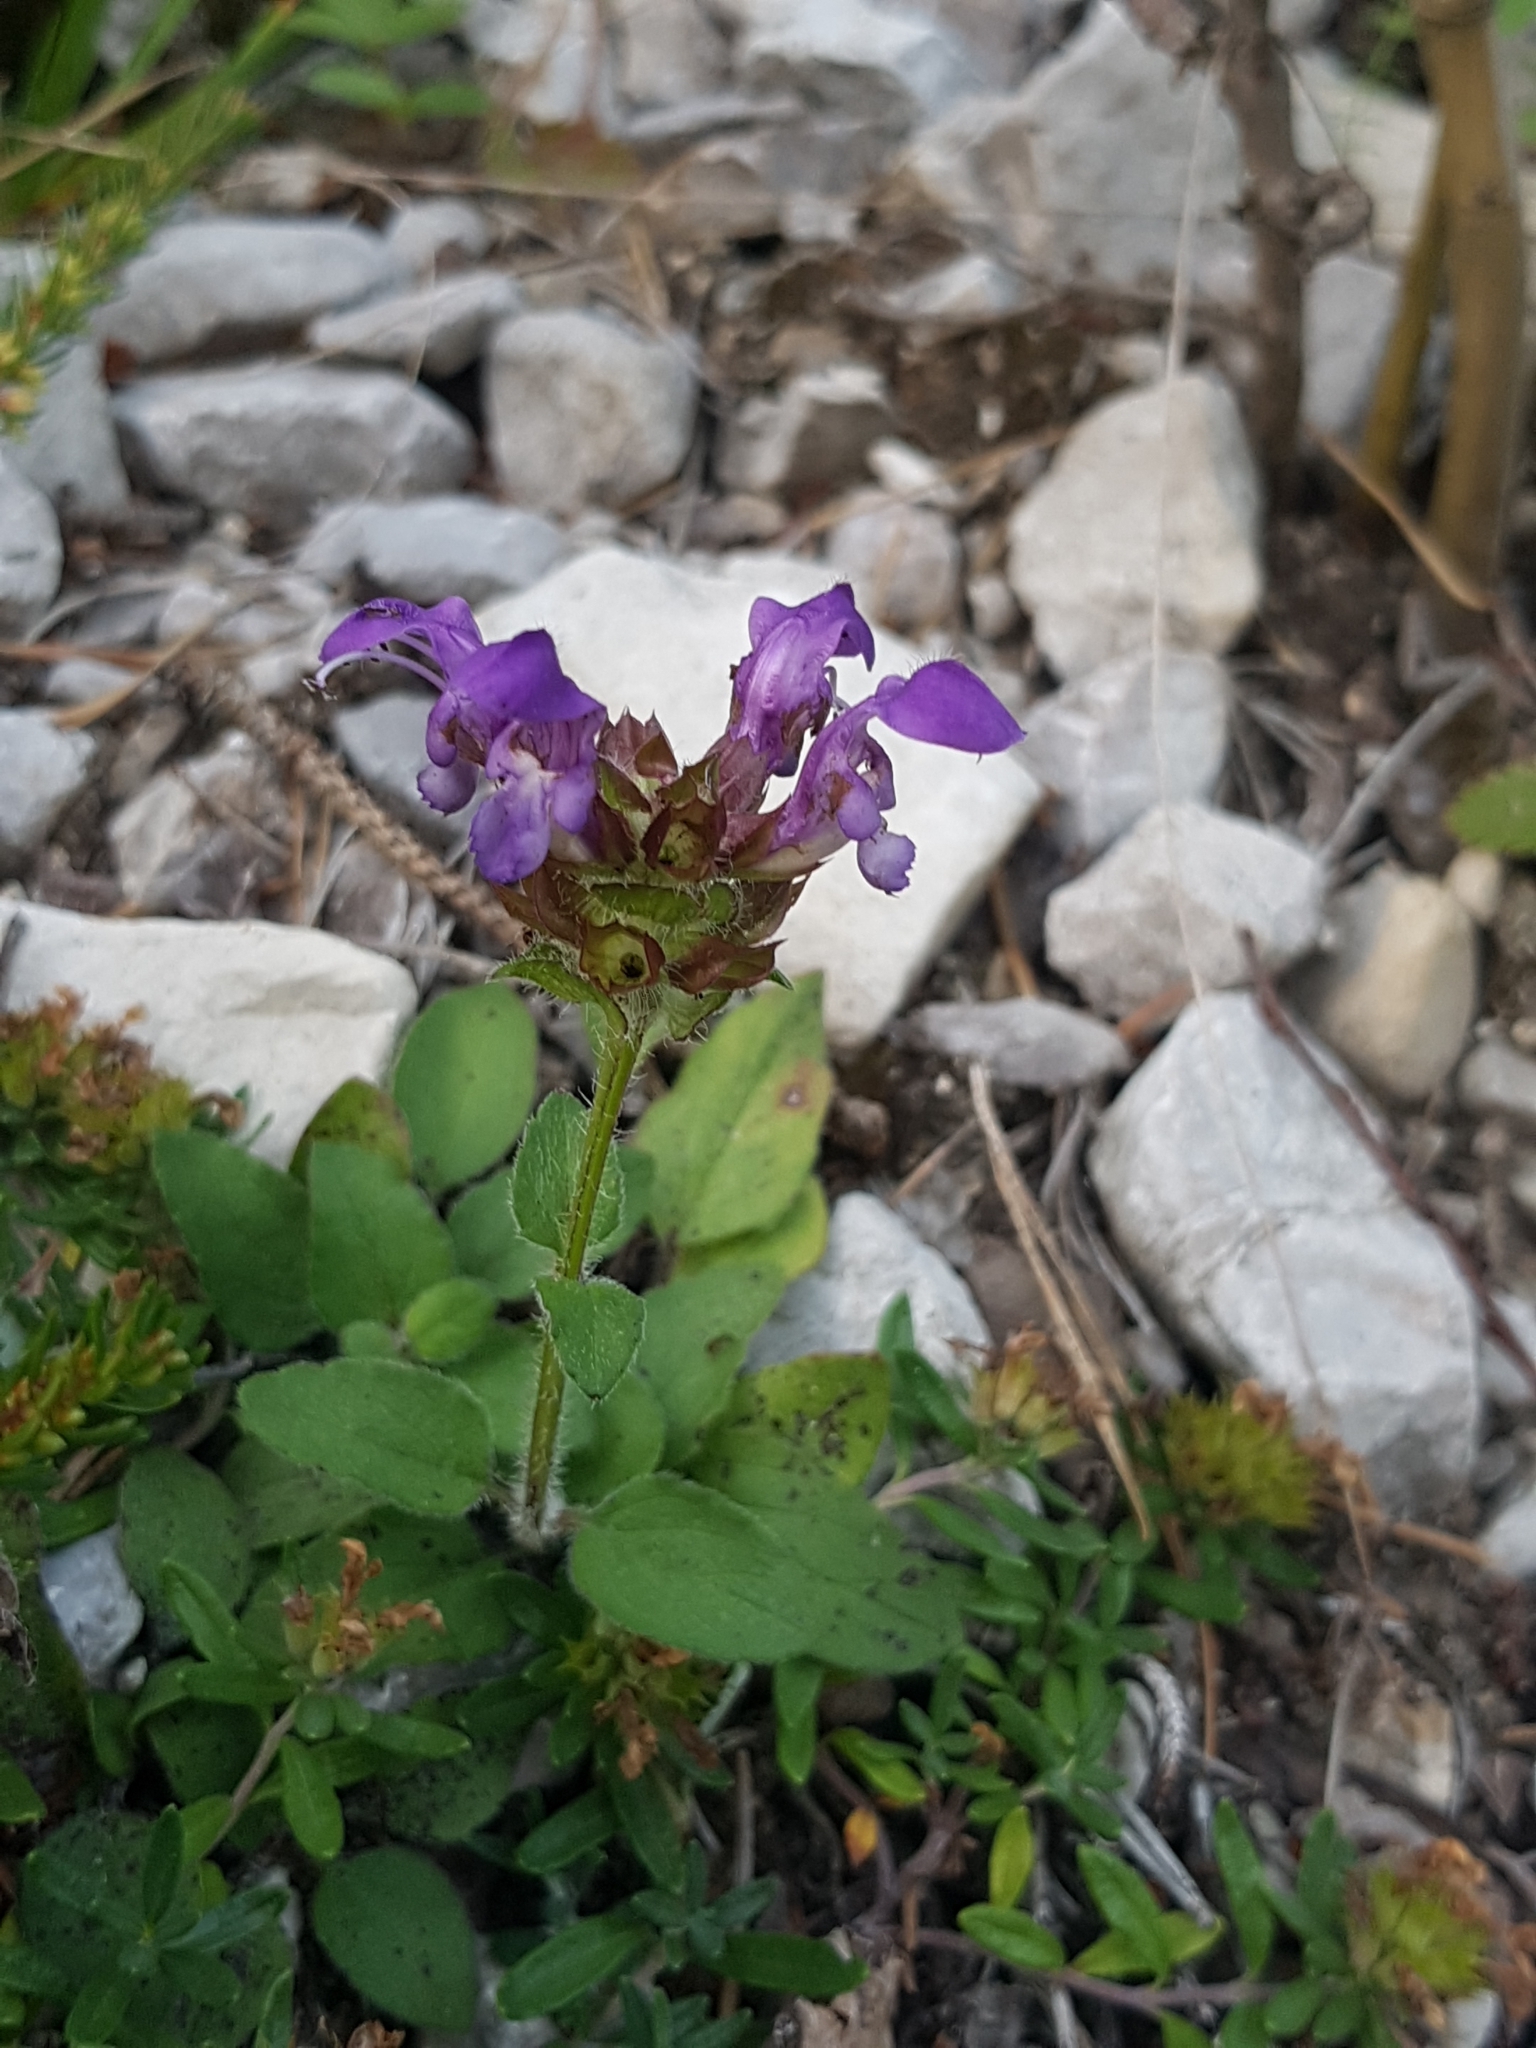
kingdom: Plantae
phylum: Tracheophyta
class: Magnoliopsida
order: Lamiales
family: Lamiaceae
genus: Prunella
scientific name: Prunella grandiflora
